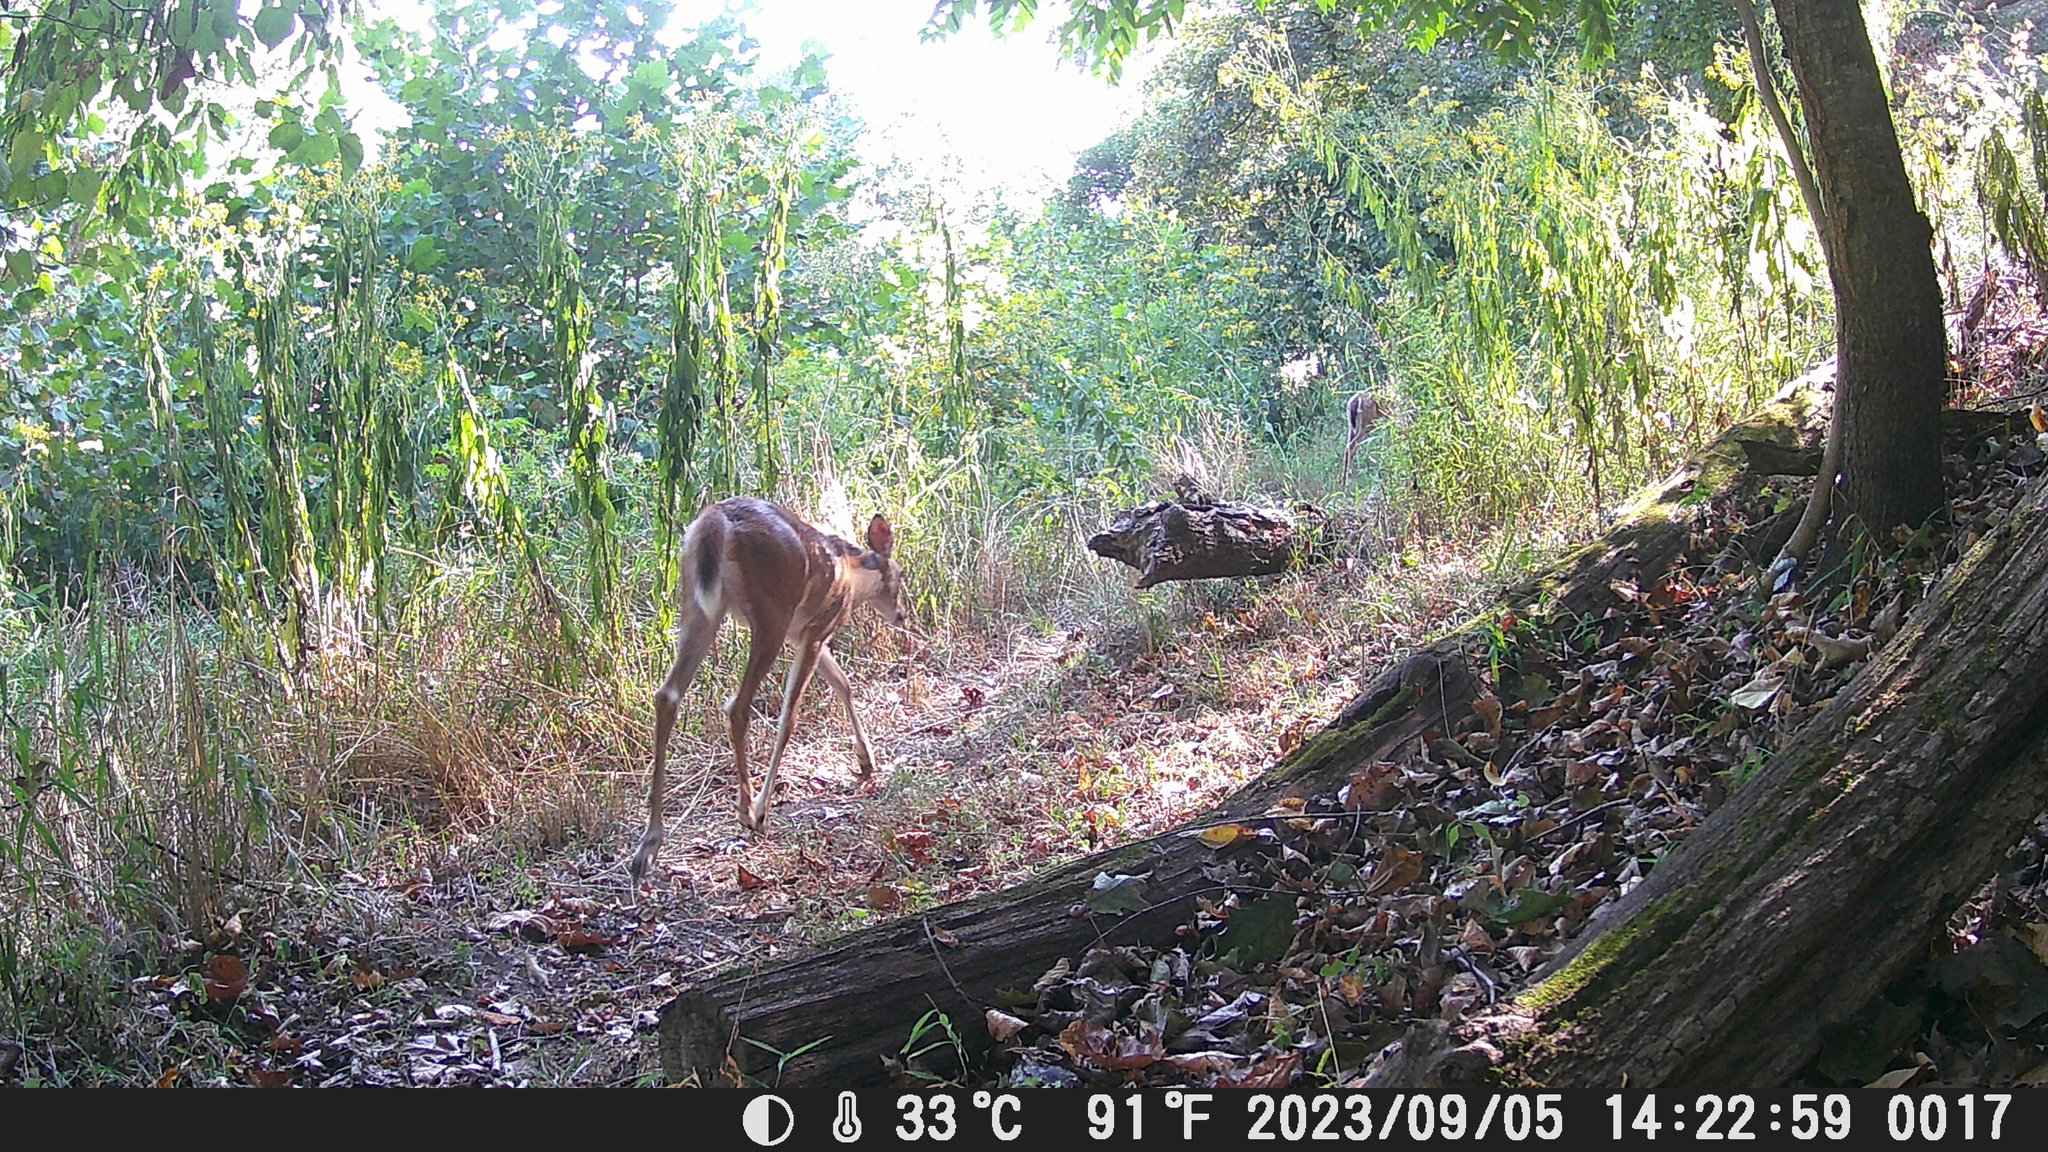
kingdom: Animalia
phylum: Chordata
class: Mammalia
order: Artiodactyla
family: Cervidae
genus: Odocoileus
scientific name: Odocoileus virginianus
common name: White-tailed deer
